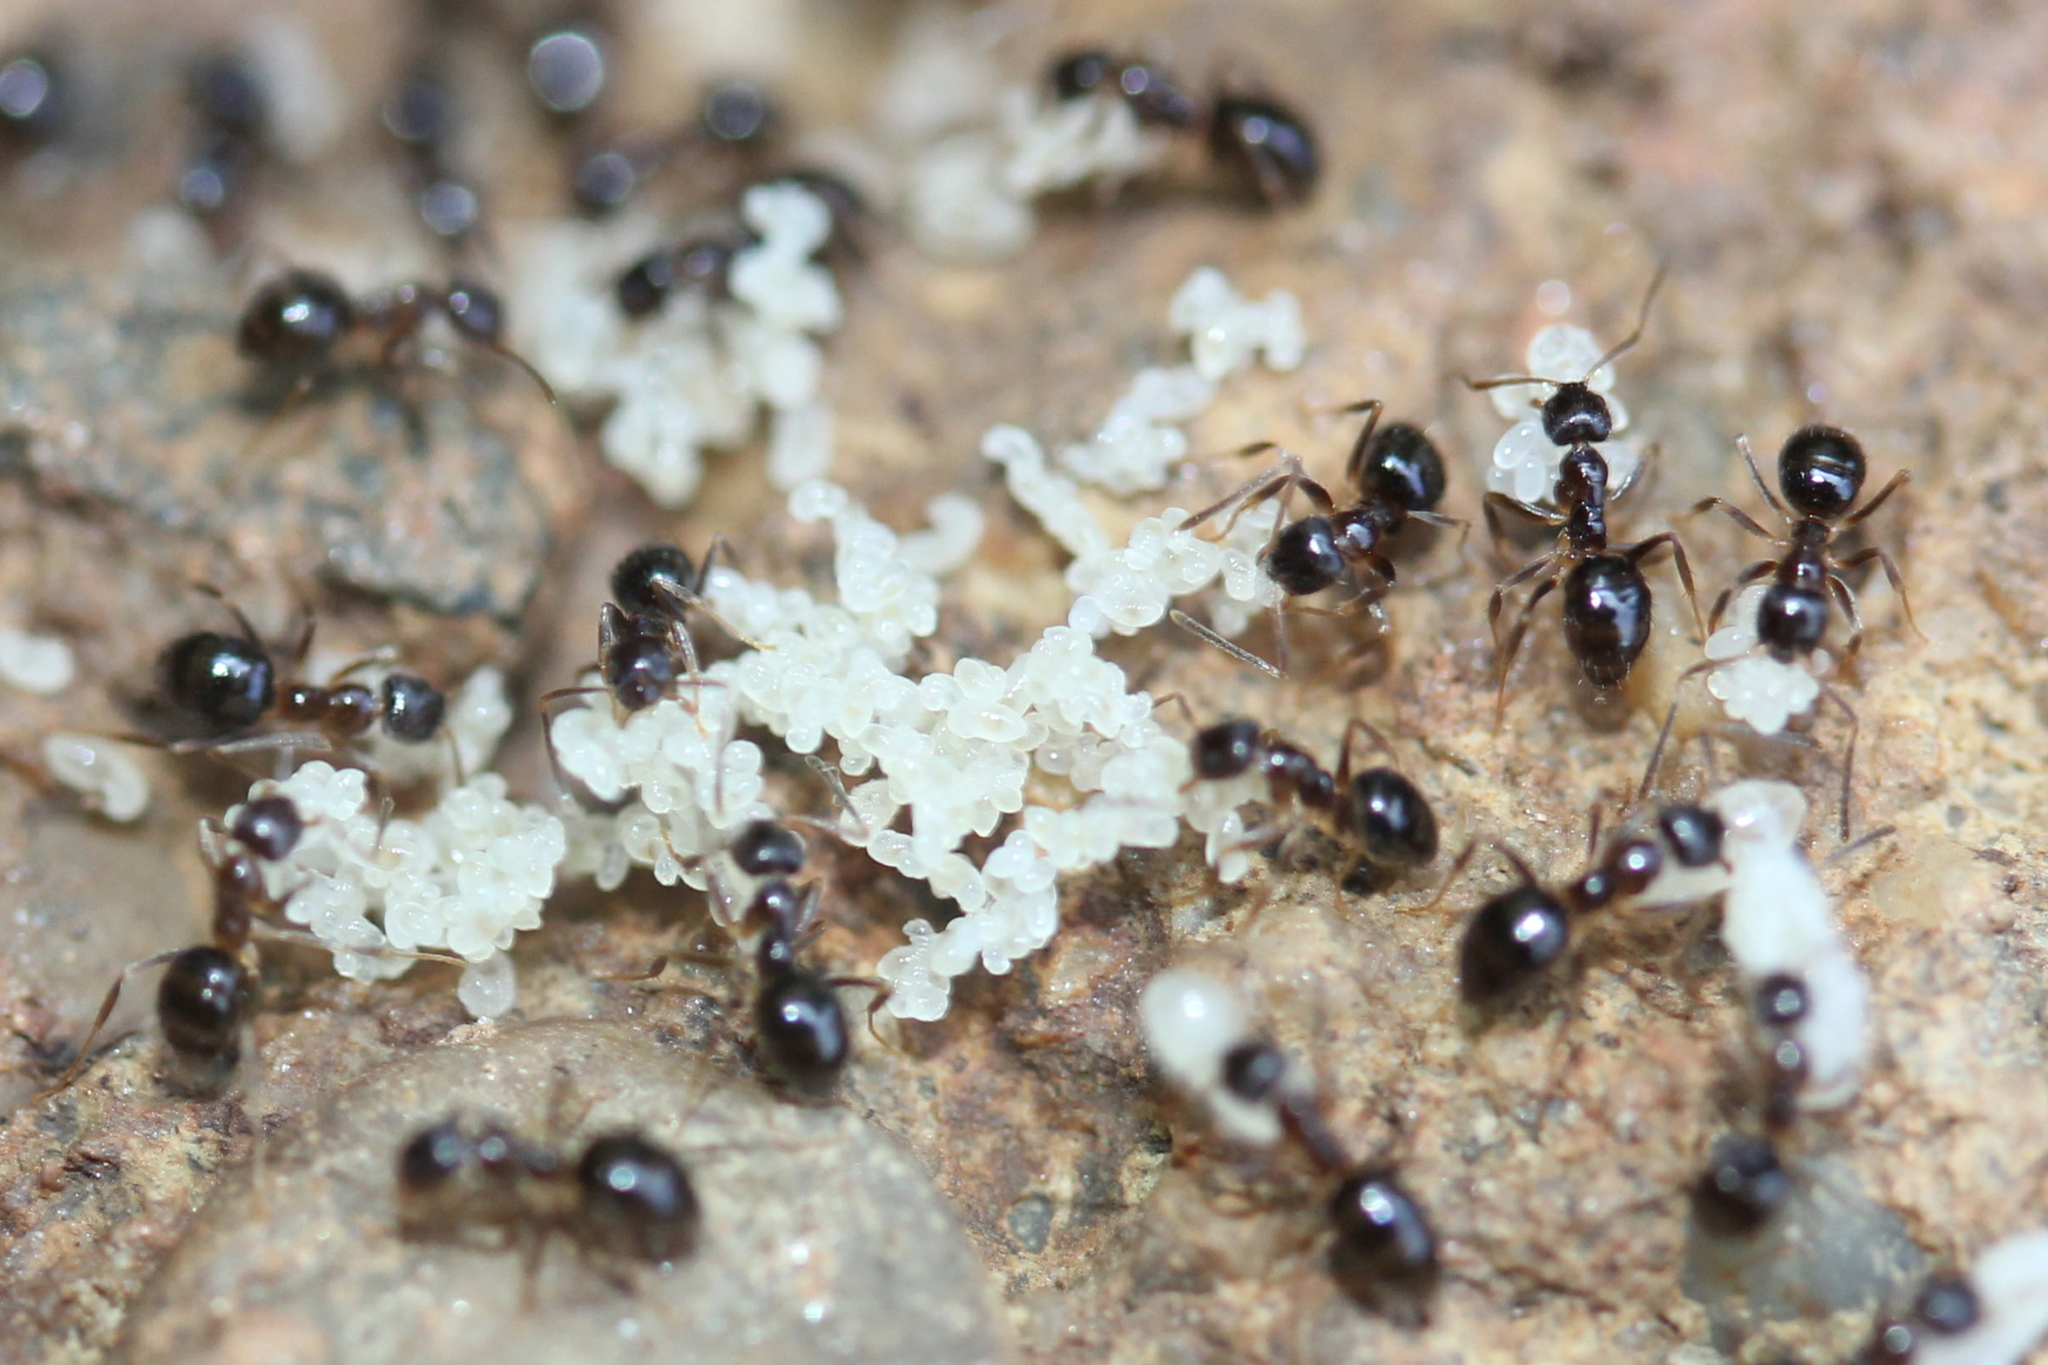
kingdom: Animalia
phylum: Arthropoda
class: Insecta
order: Hymenoptera
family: Formicidae
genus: Nylanderia
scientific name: Nylanderia faisonensis
